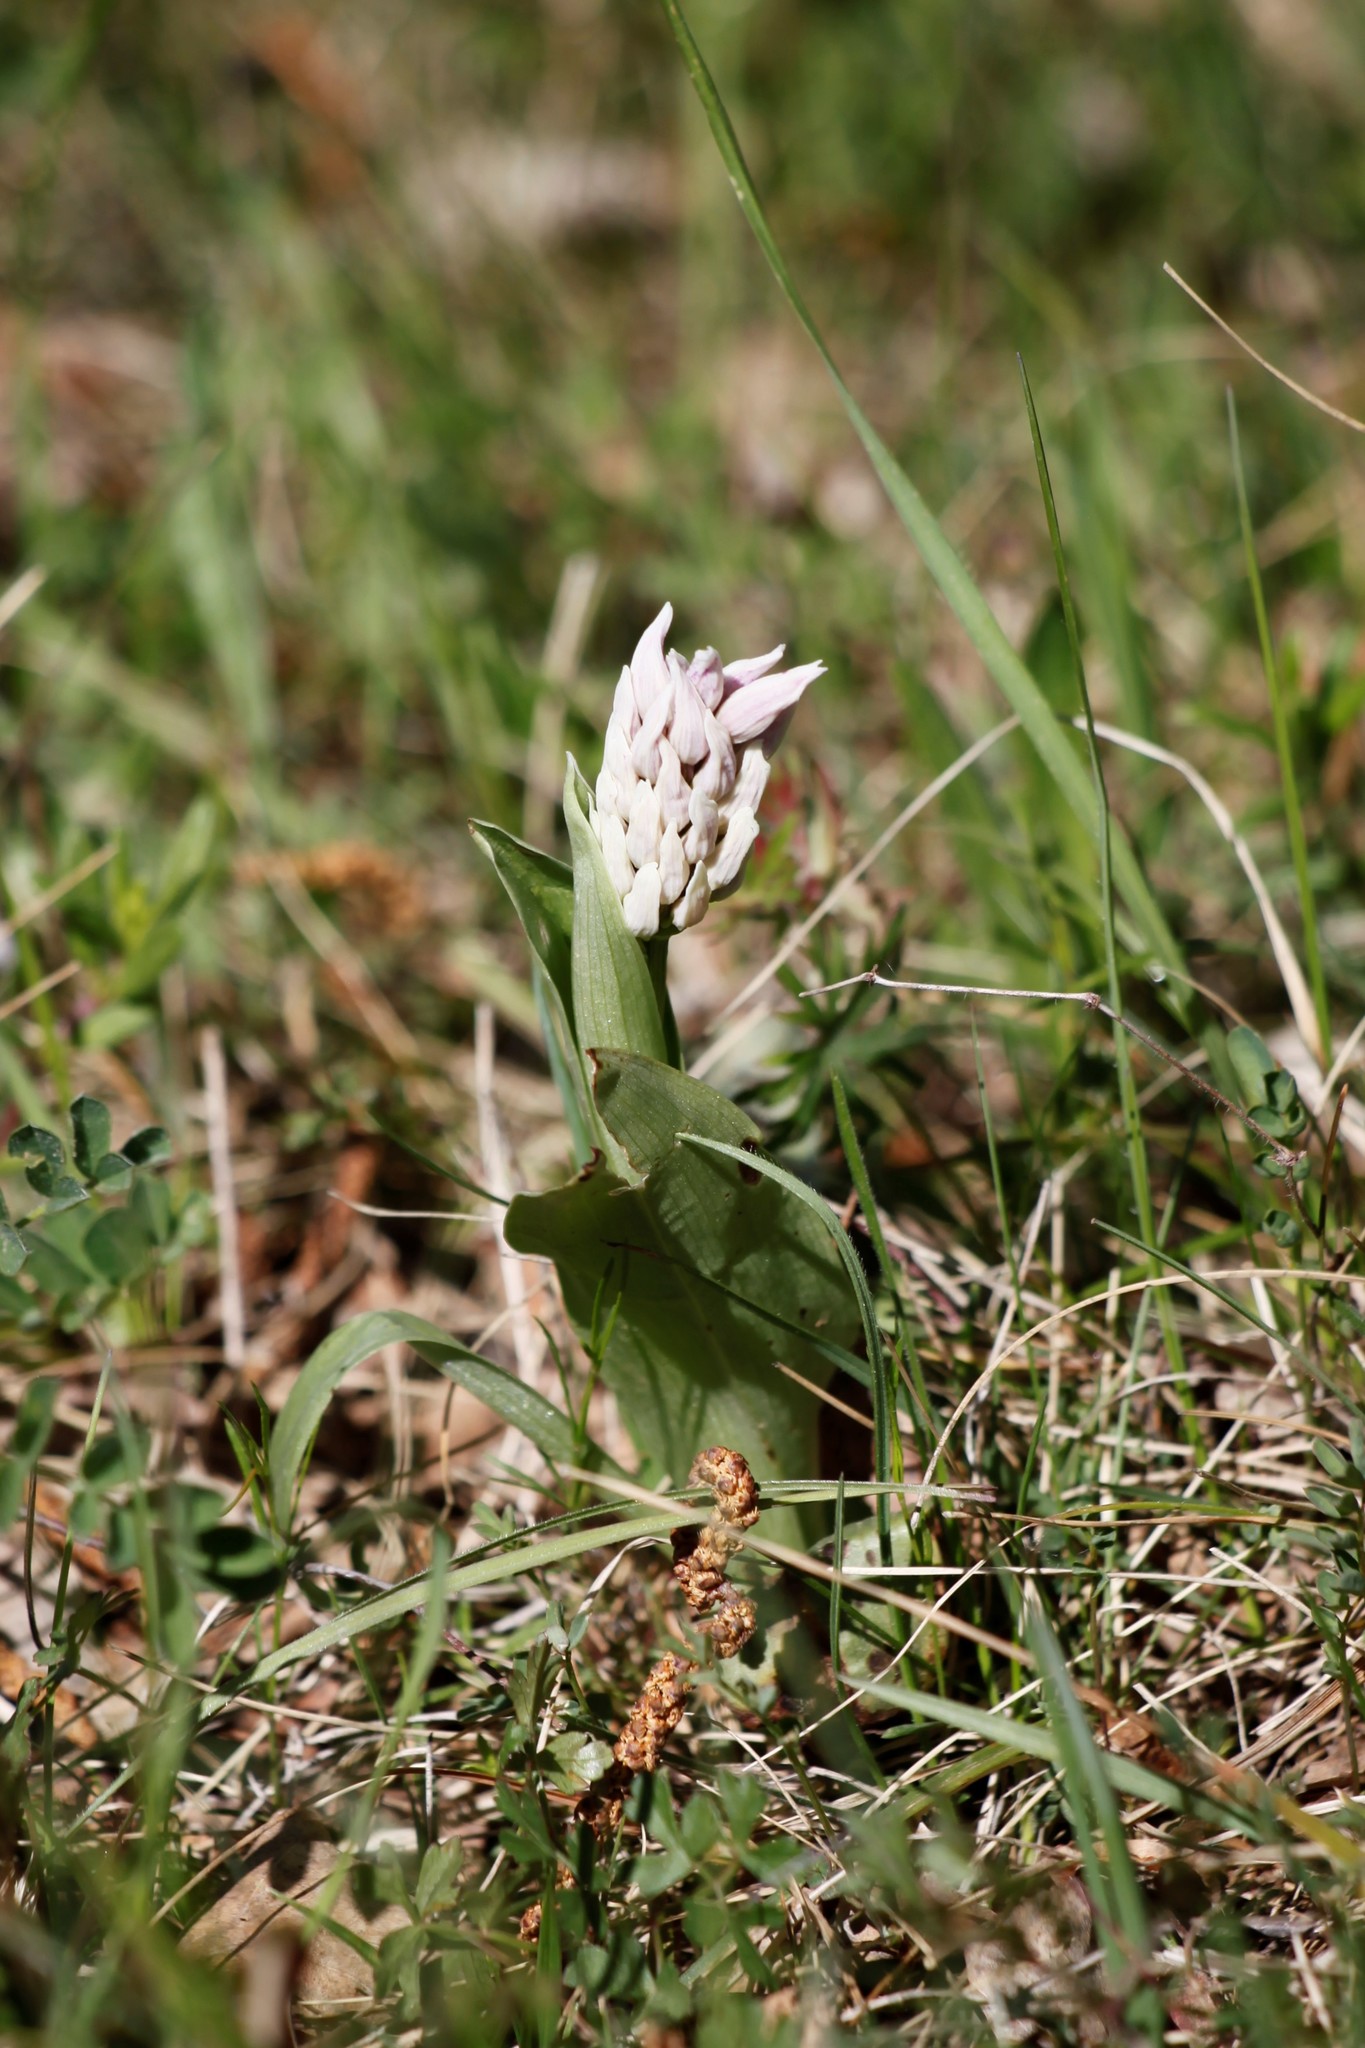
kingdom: Plantae
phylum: Tracheophyta
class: Liliopsida
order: Asparagales
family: Orchidaceae
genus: Orchis
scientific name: Orchis simia
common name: Monkey orchid
